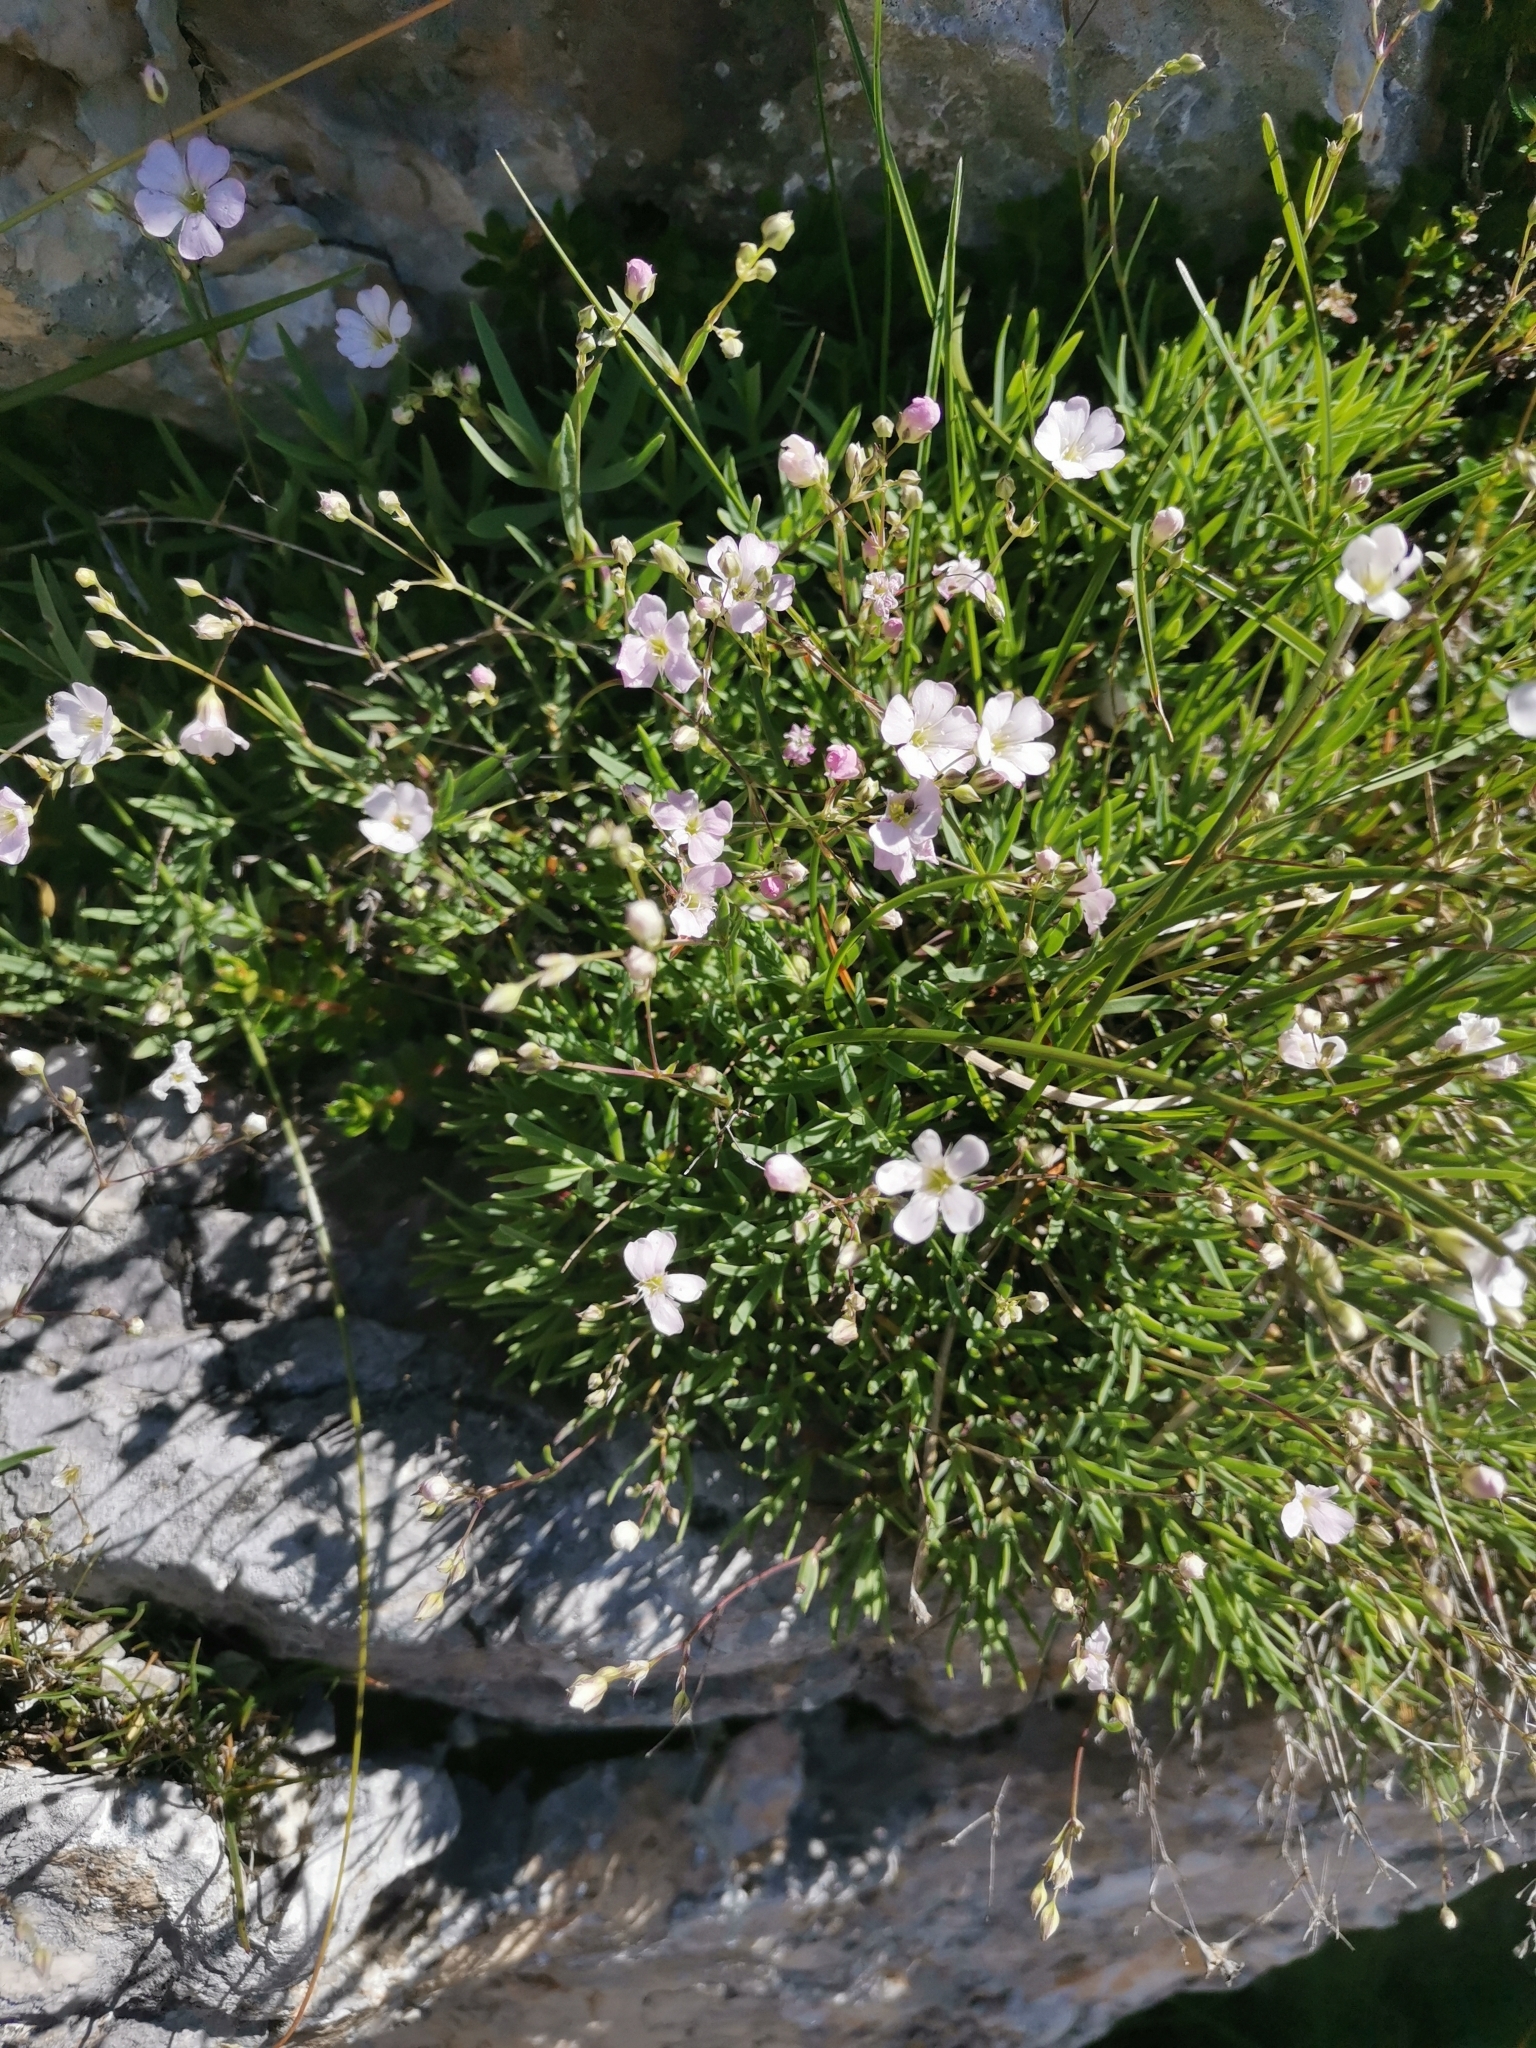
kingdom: Plantae
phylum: Tracheophyta
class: Magnoliopsida
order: Caryophyllales
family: Caryophyllaceae
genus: Gypsophila
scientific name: Gypsophila repens
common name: Creeping baby's-breath
